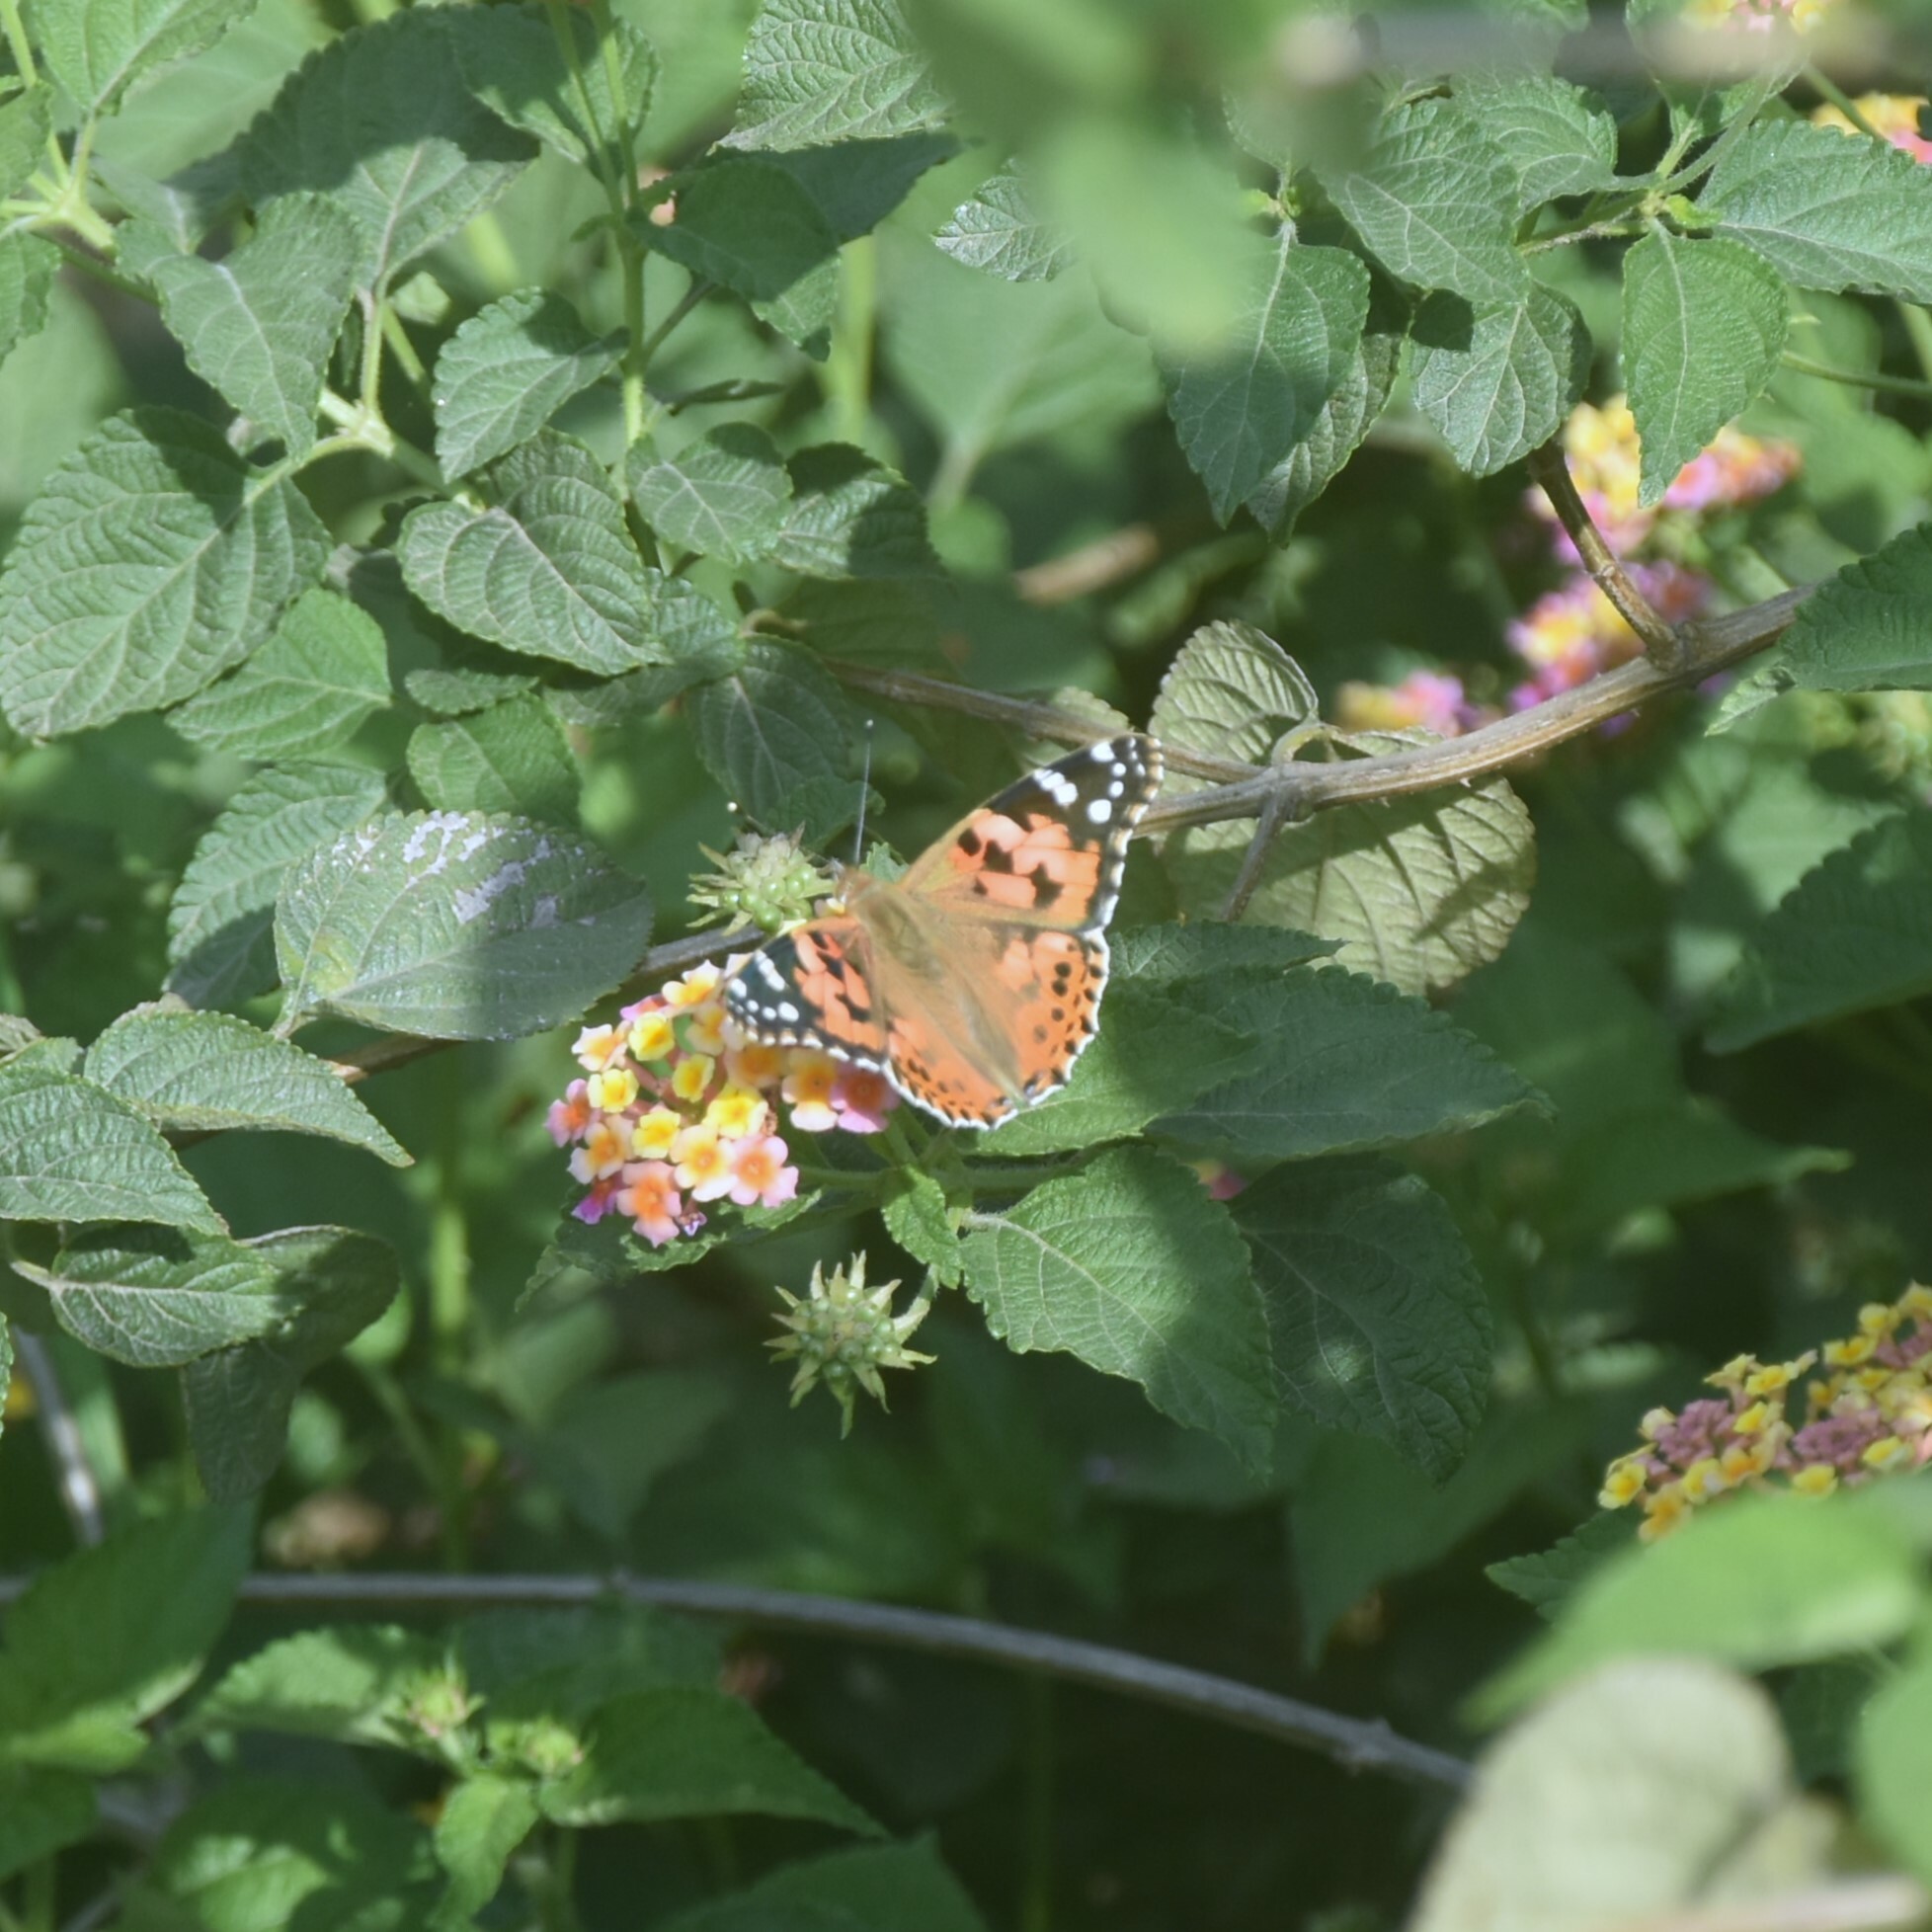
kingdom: Animalia
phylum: Arthropoda
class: Insecta
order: Lepidoptera
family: Nymphalidae
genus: Vanessa
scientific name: Vanessa cardui
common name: Painted lady
